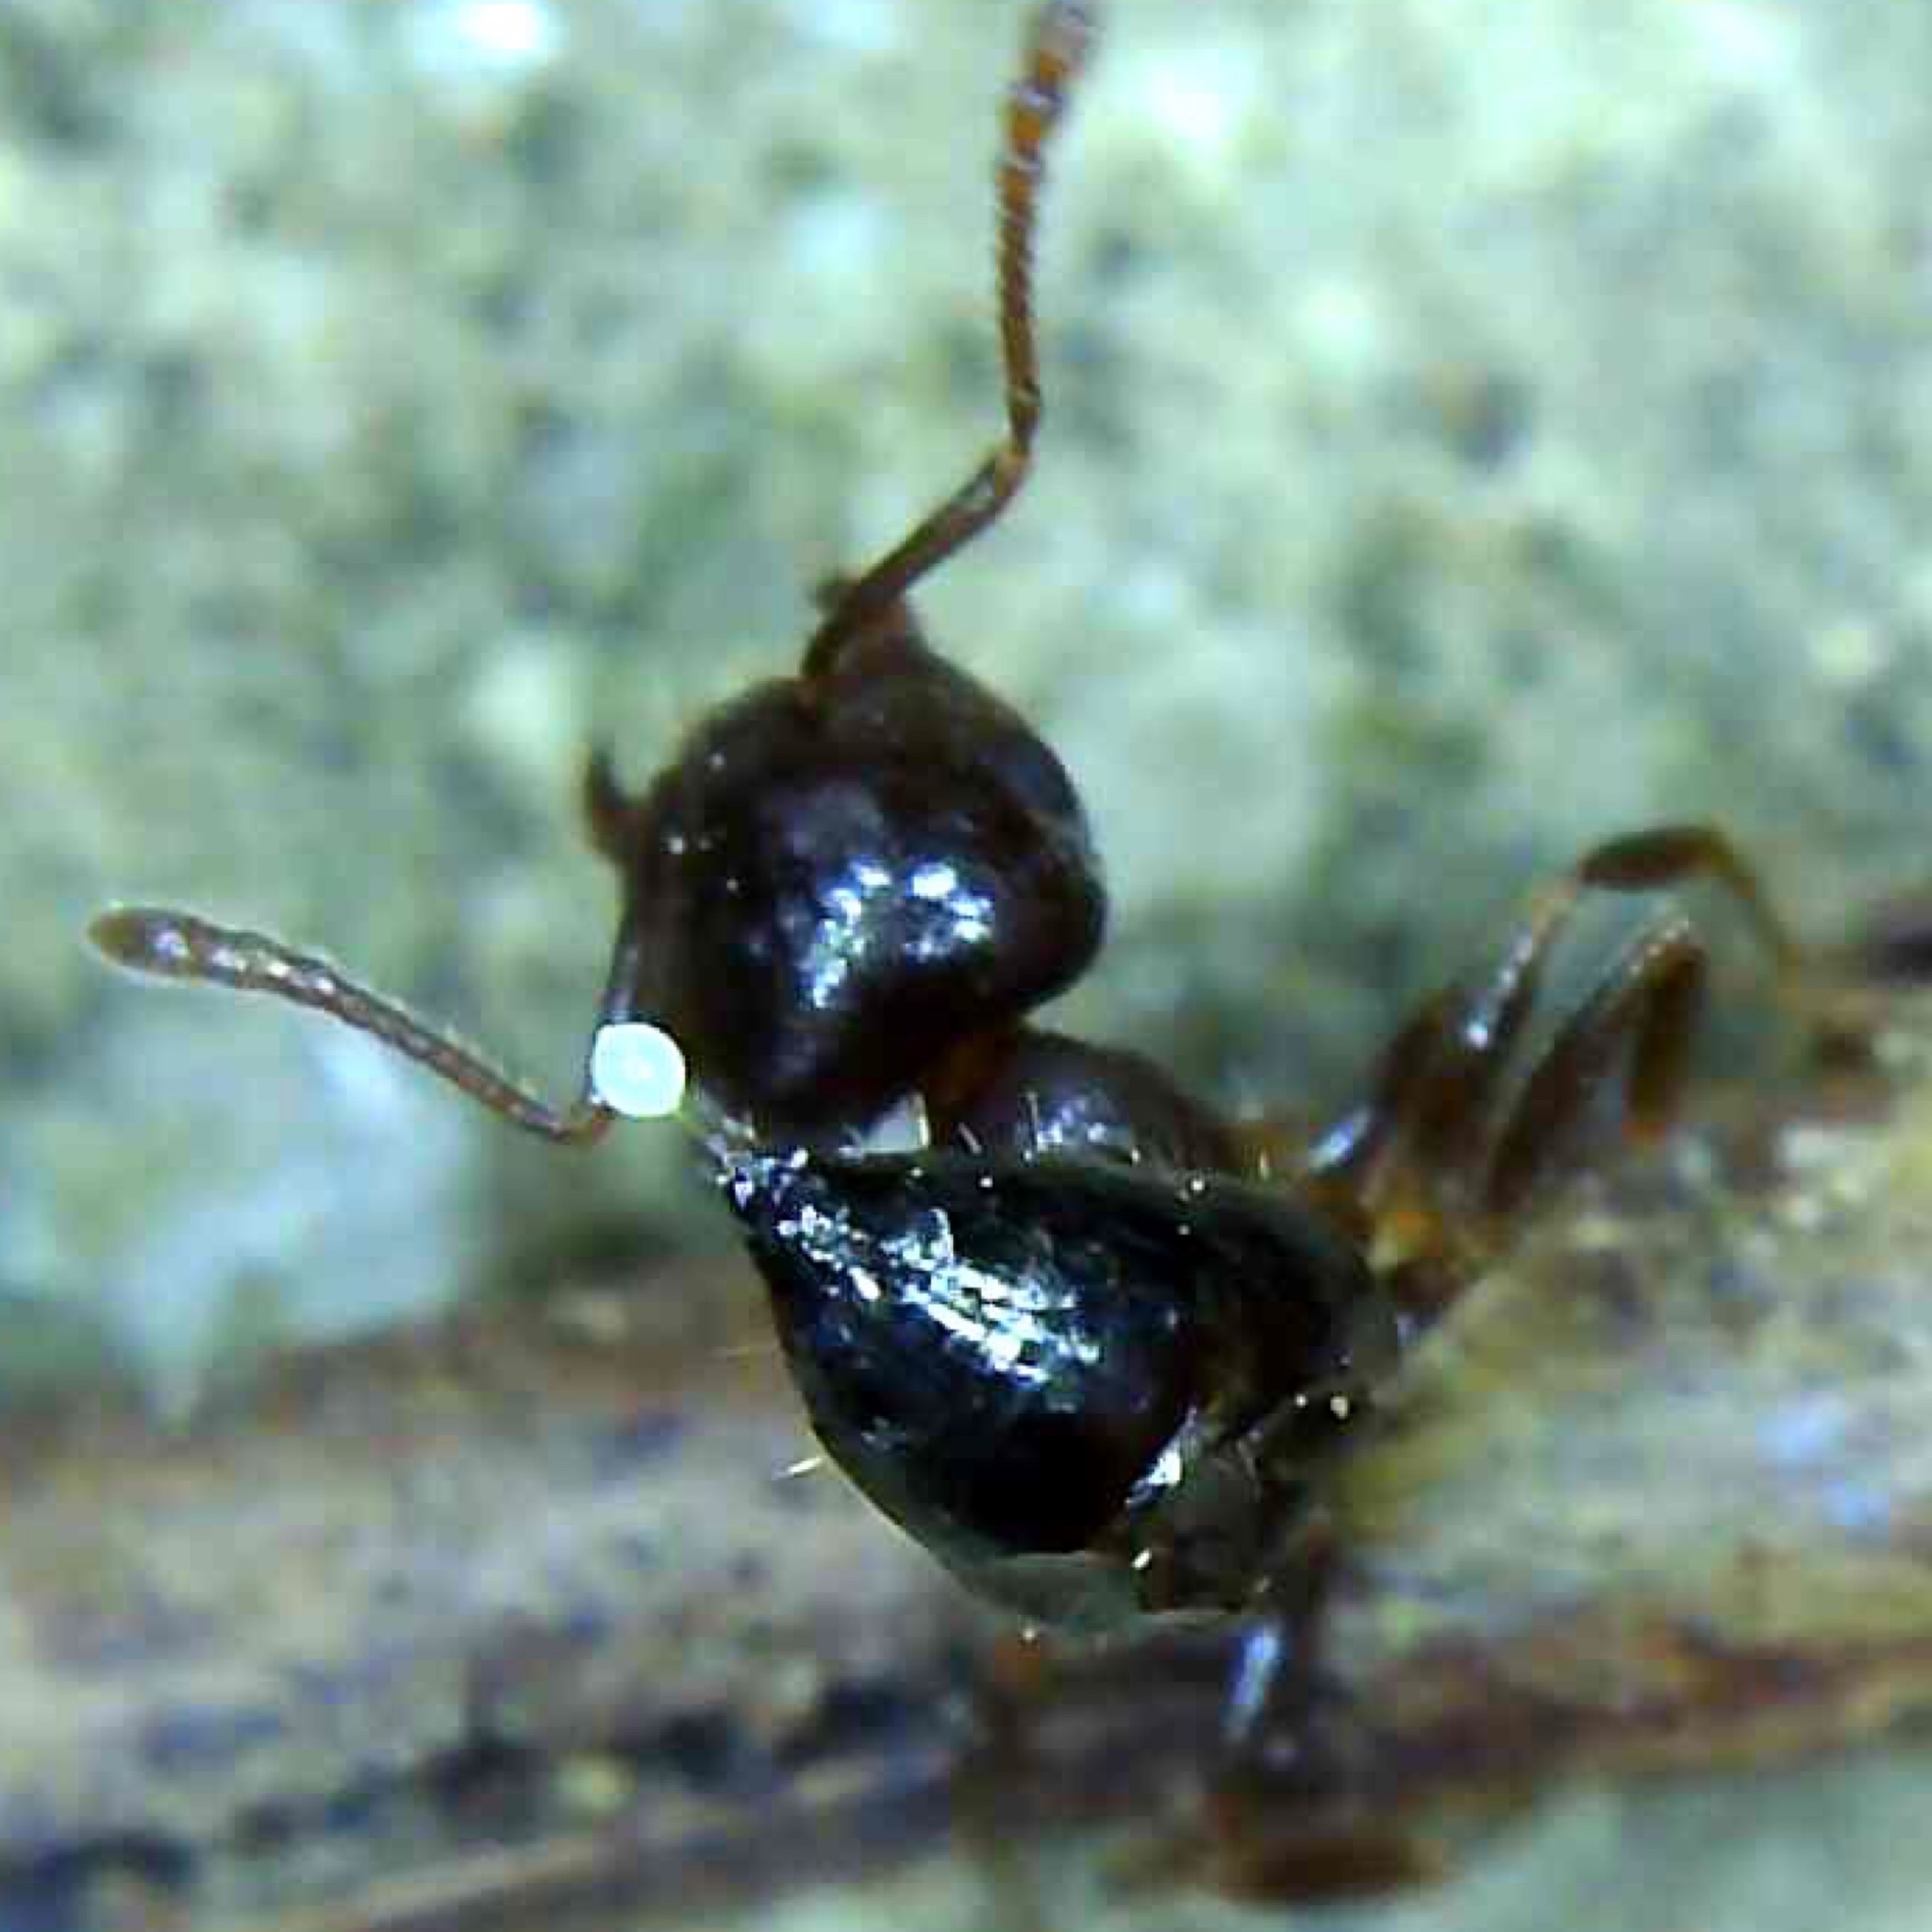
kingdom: Animalia
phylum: Arthropoda
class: Insecta
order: Hymenoptera
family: Formicidae
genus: Crematogaster
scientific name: Crematogaster lineolata
